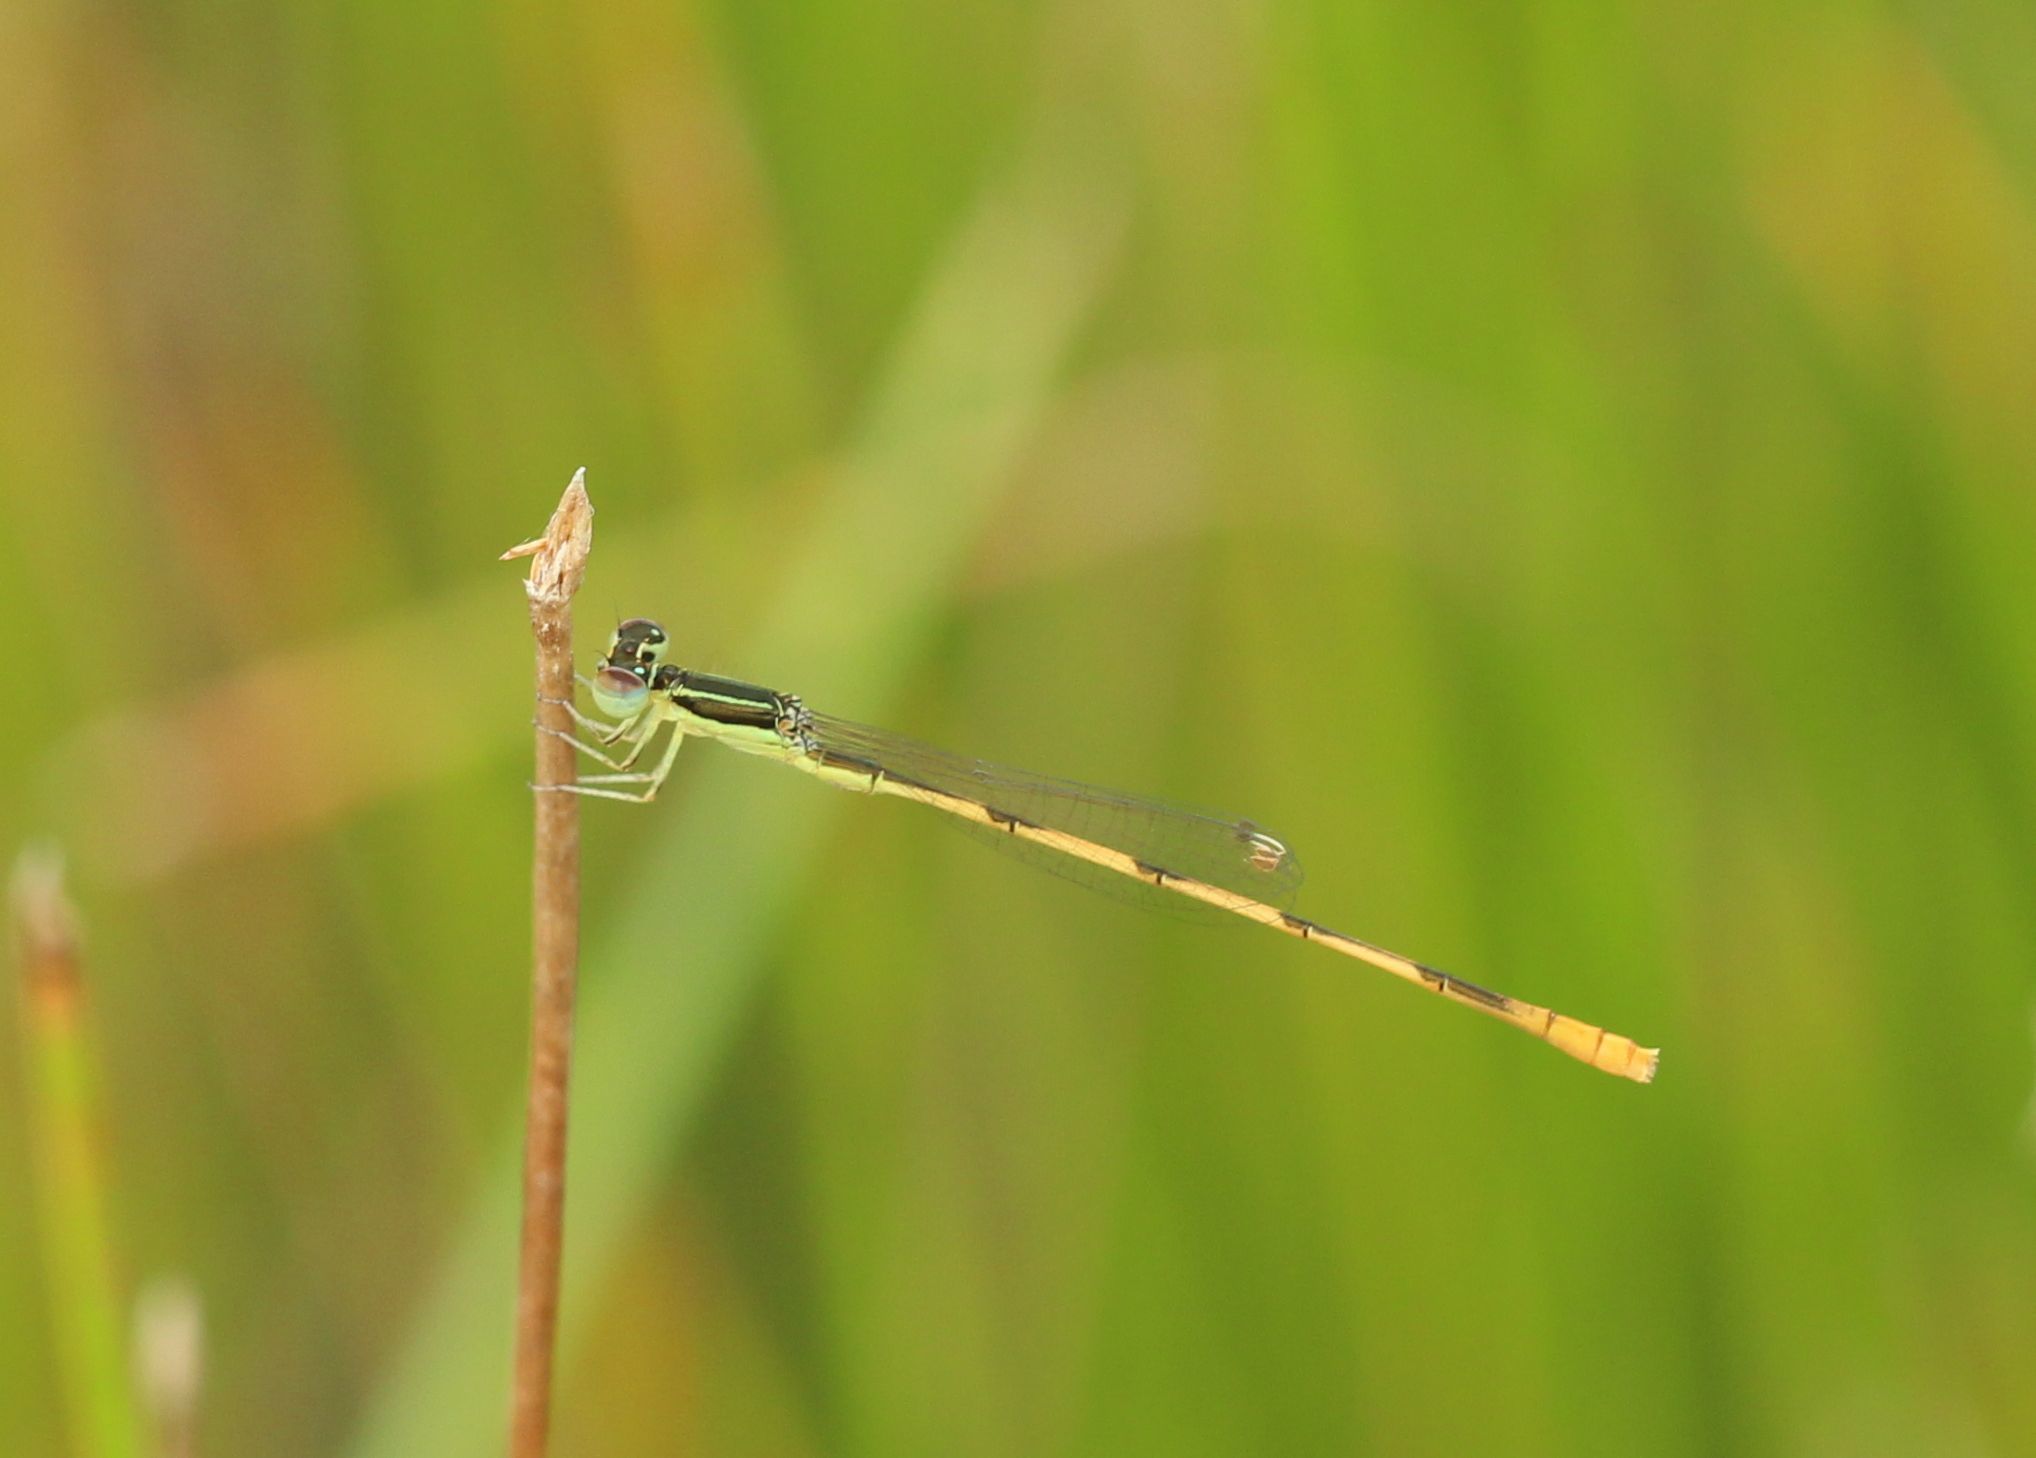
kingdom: Animalia
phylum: Arthropoda
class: Insecta
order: Odonata
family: Coenagrionidae
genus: Ischnura
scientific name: Ischnura hastata
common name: Citrine forktail
